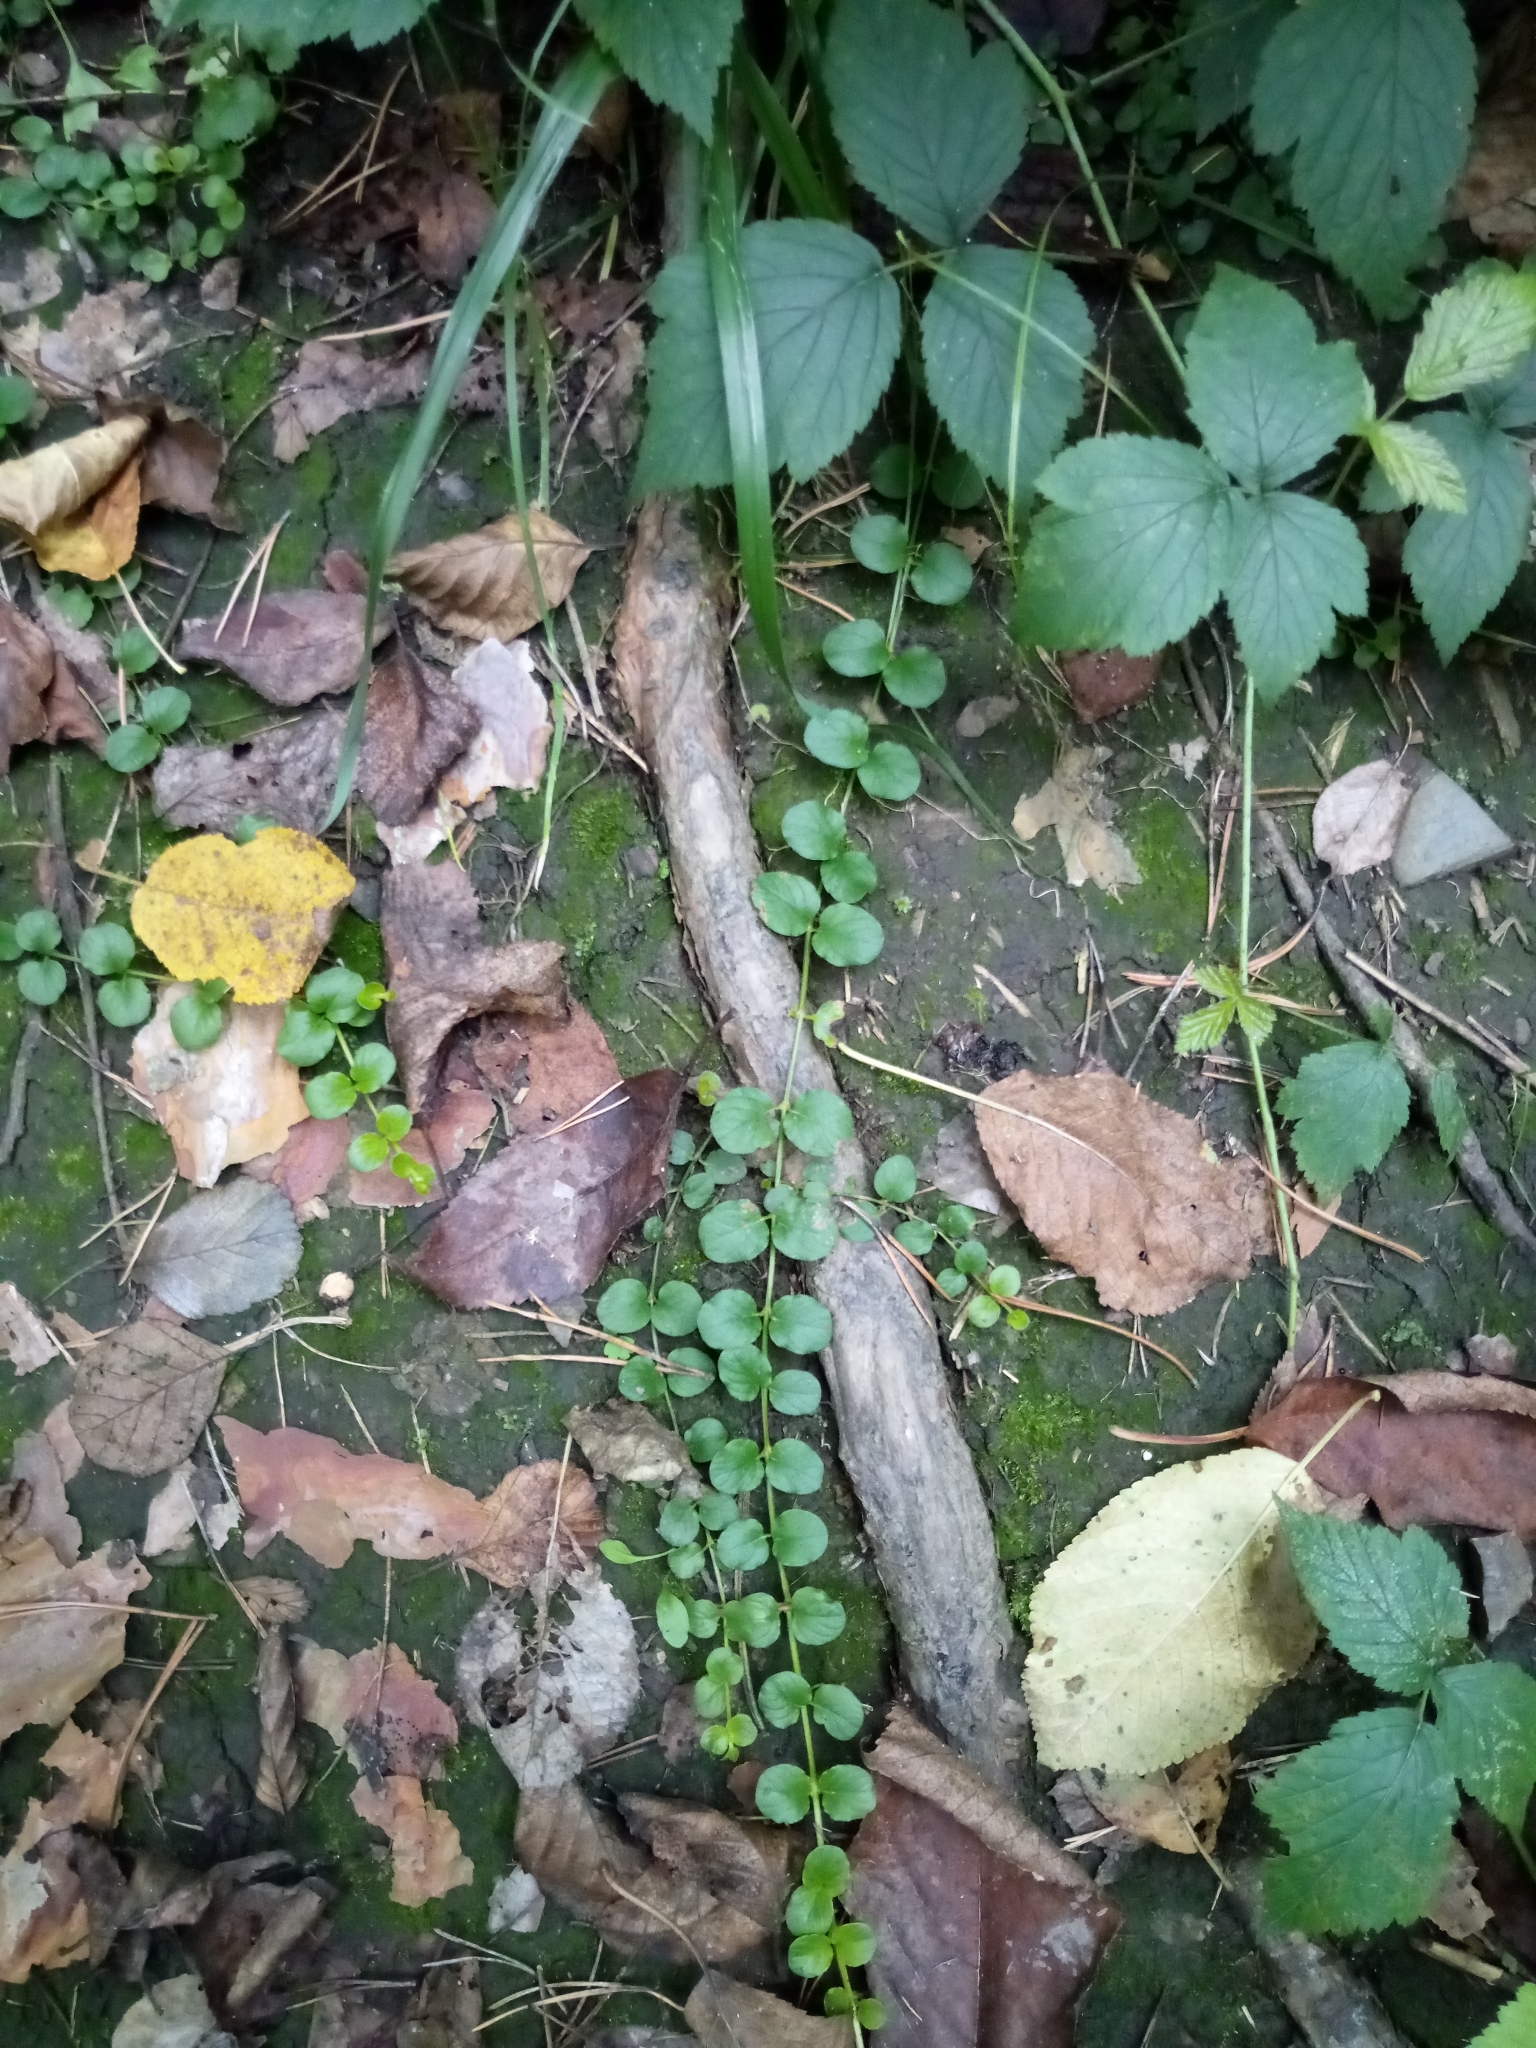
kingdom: Plantae
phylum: Tracheophyta
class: Magnoliopsida
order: Ericales
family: Primulaceae
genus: Lysimachia
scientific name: Lysimachia nummularia
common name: Moneywort
